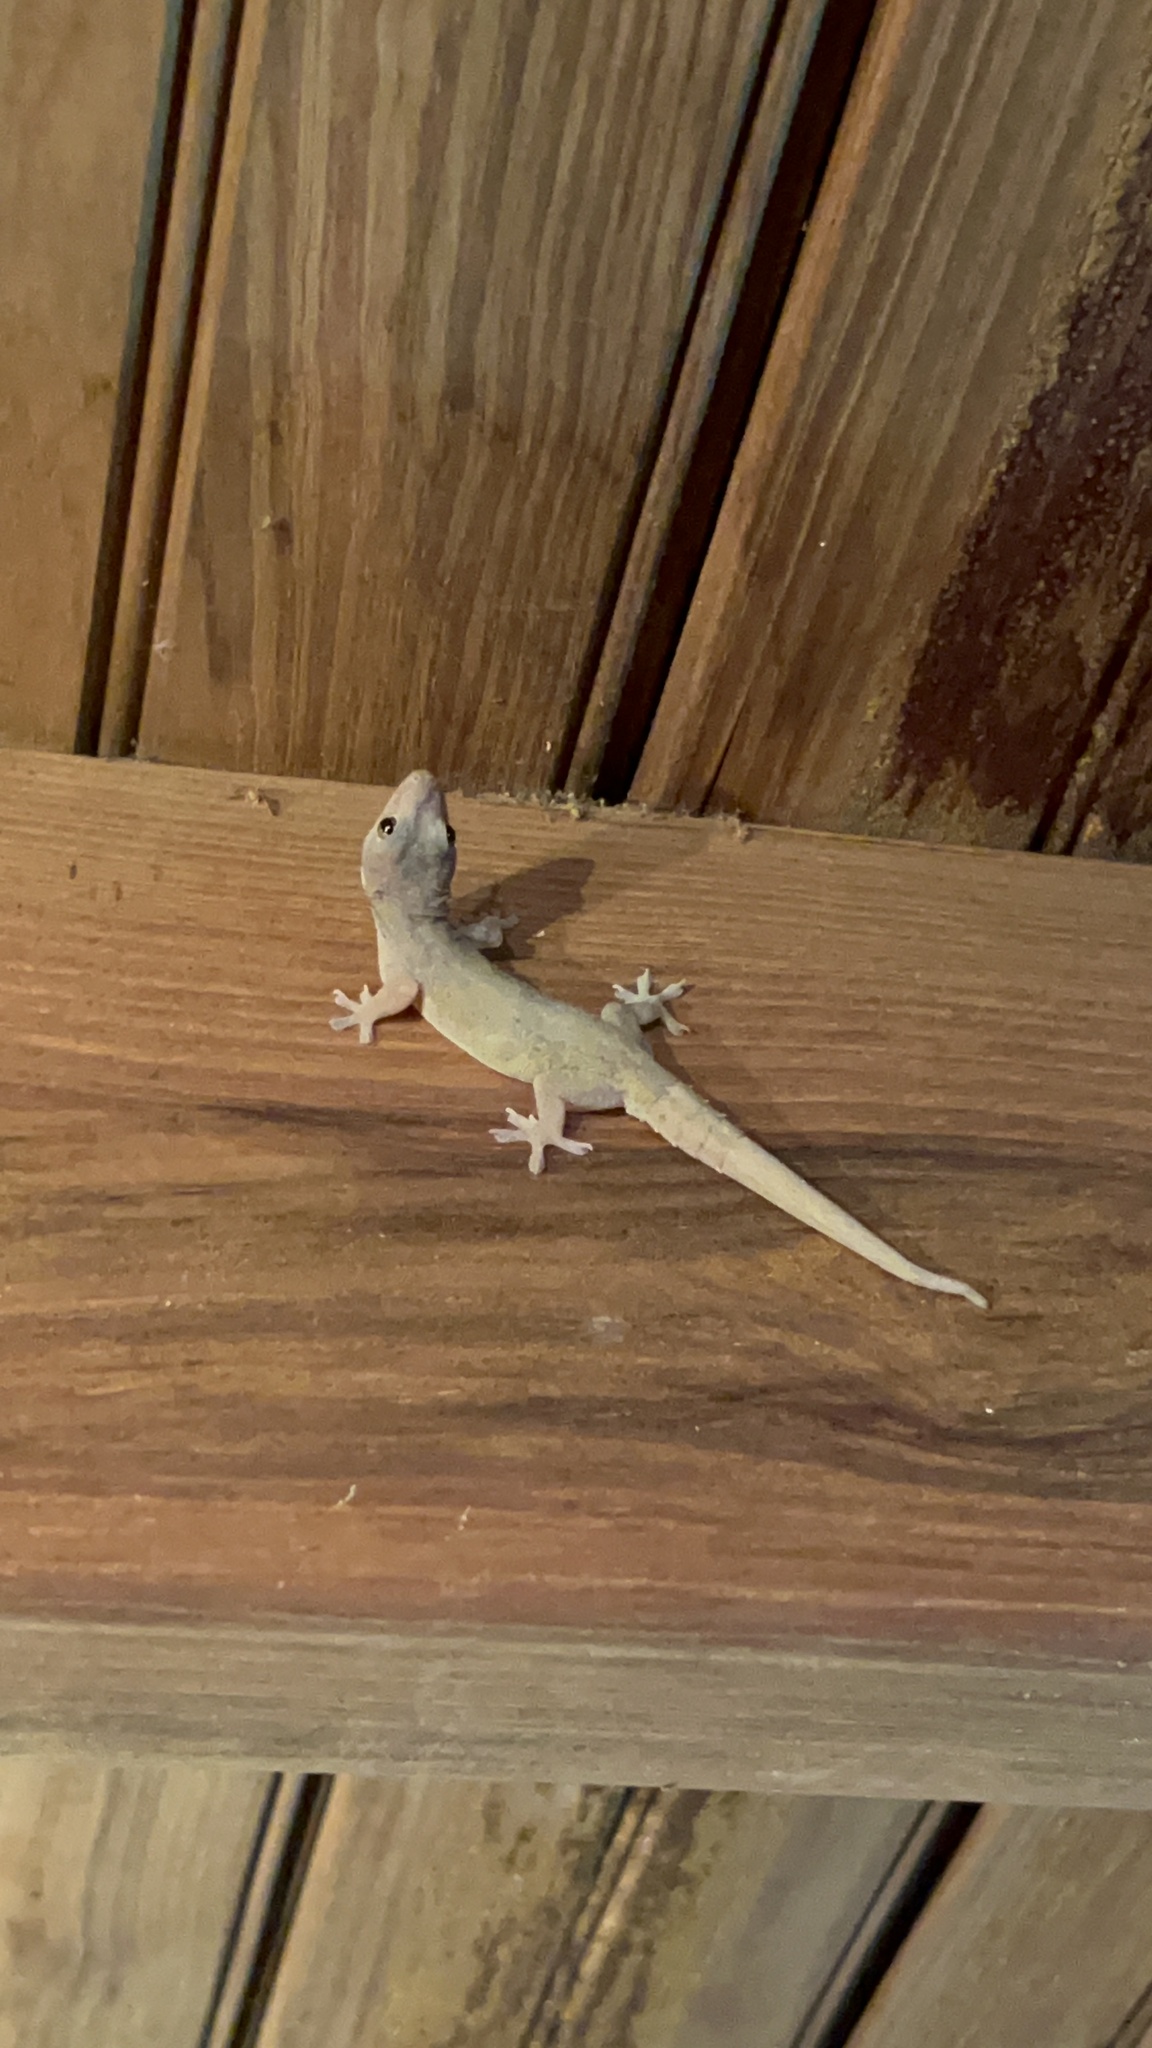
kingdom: Animalia
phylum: Chordata
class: Squamata
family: Gekkonidae
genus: Hemidactylus
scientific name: Hemidactylus frenatus
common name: Common house gecko
